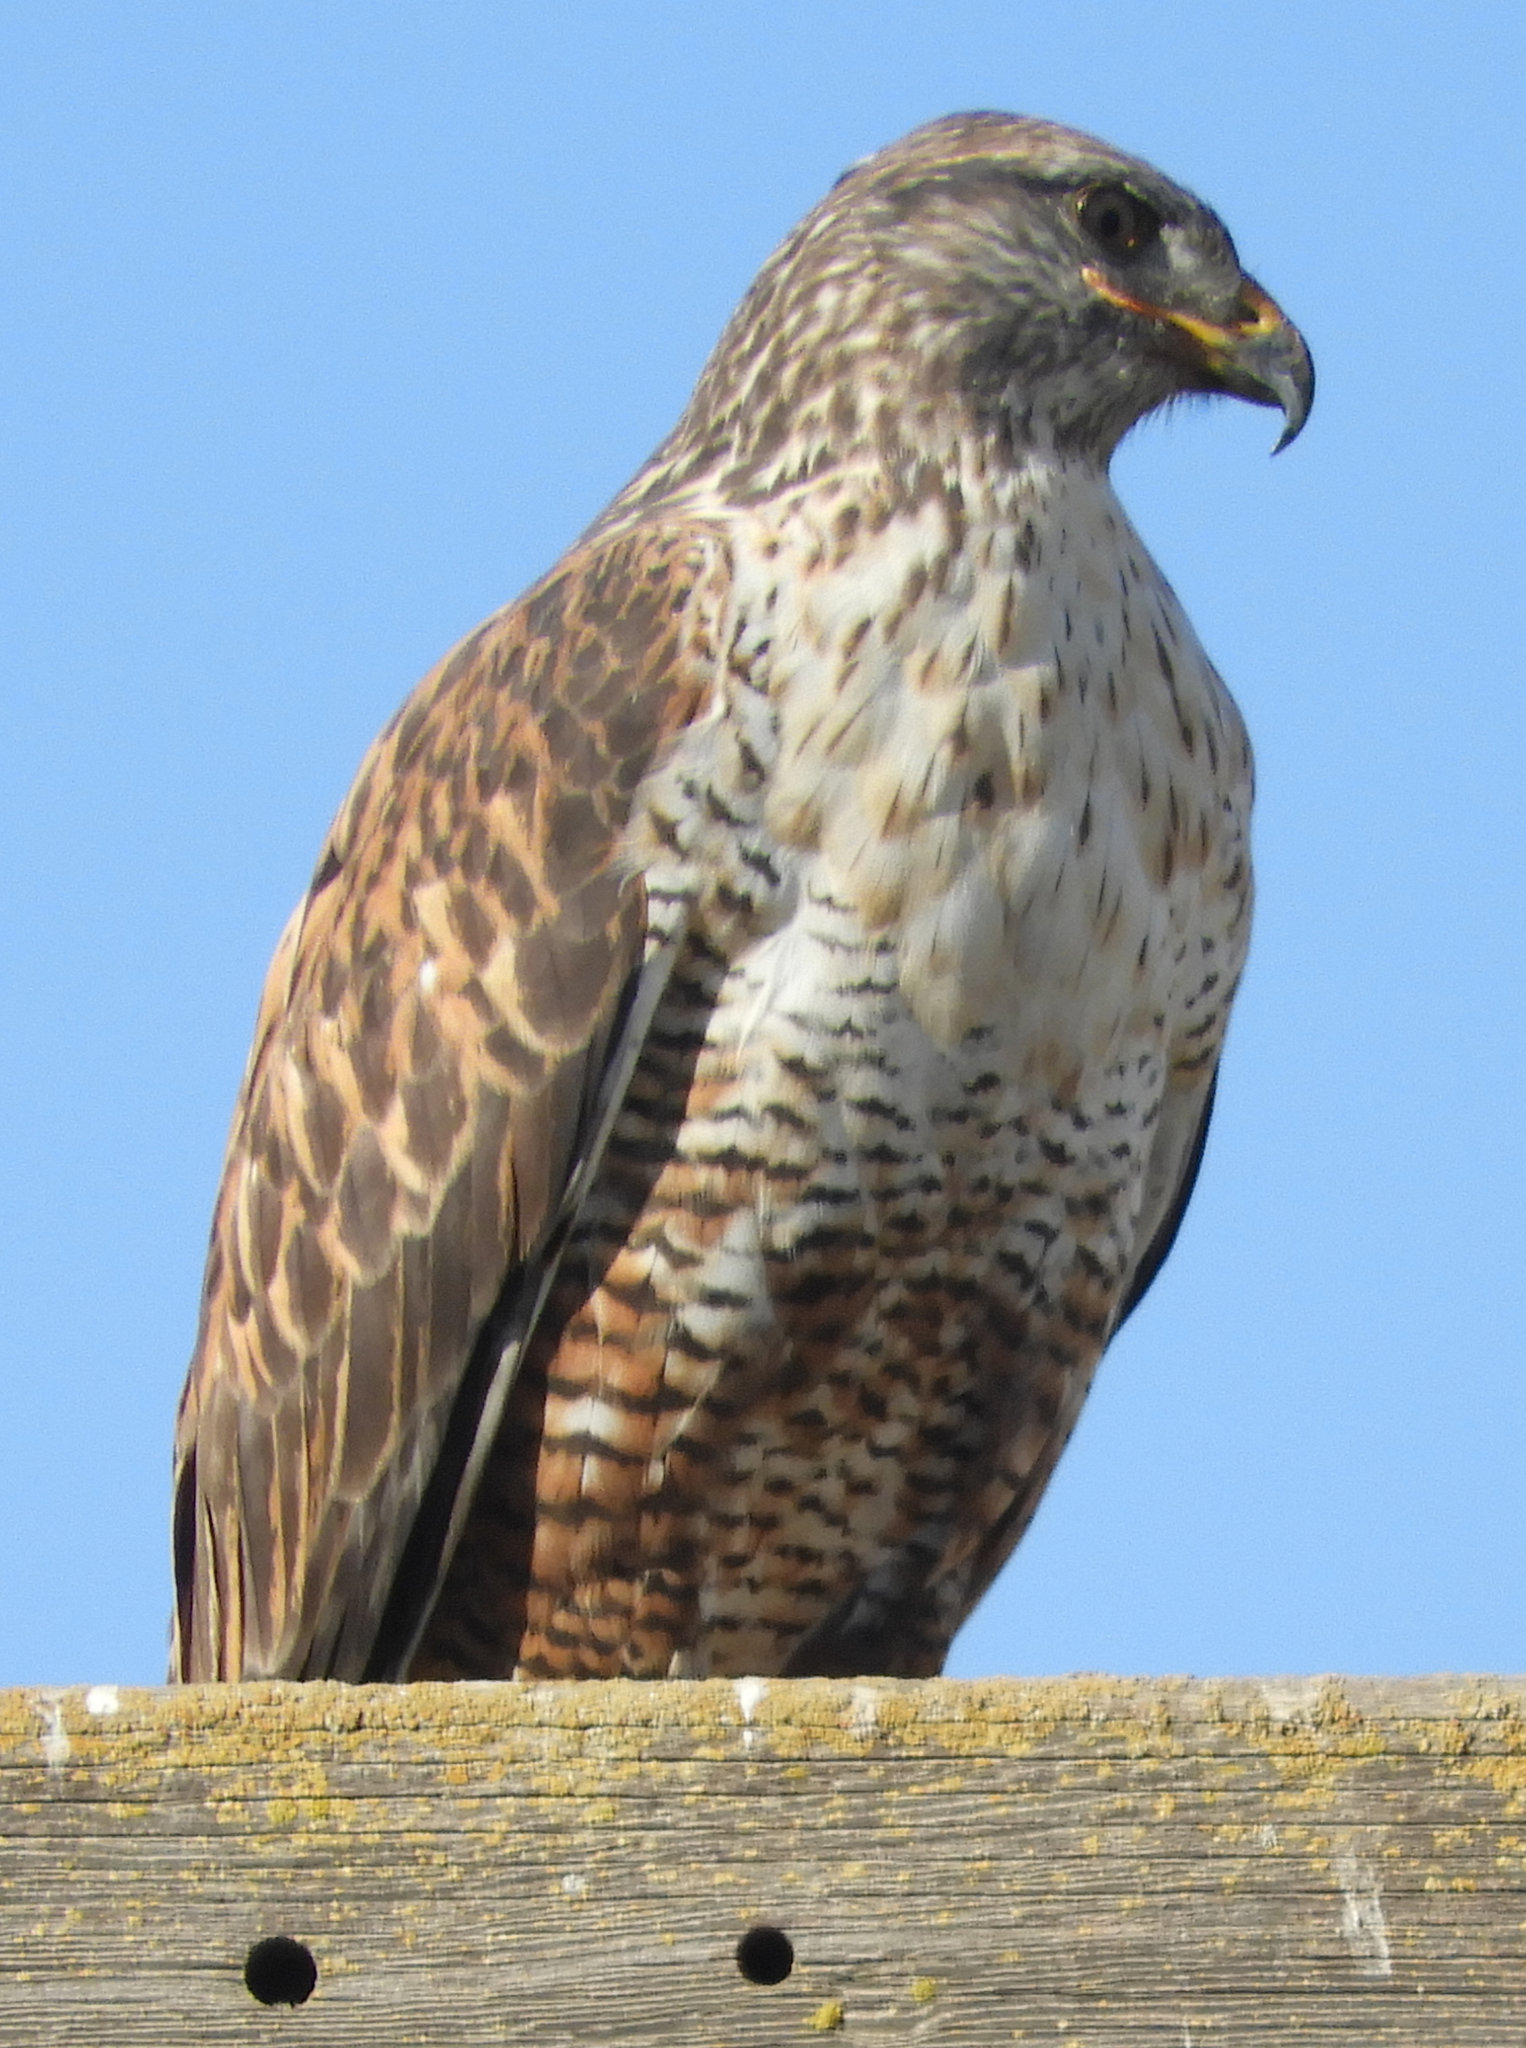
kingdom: Animalia
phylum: Chordata
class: Aves
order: Accipitriformes
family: Accipitridae
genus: Buteo
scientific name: Buteo regalis
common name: Ferruginous hawk
